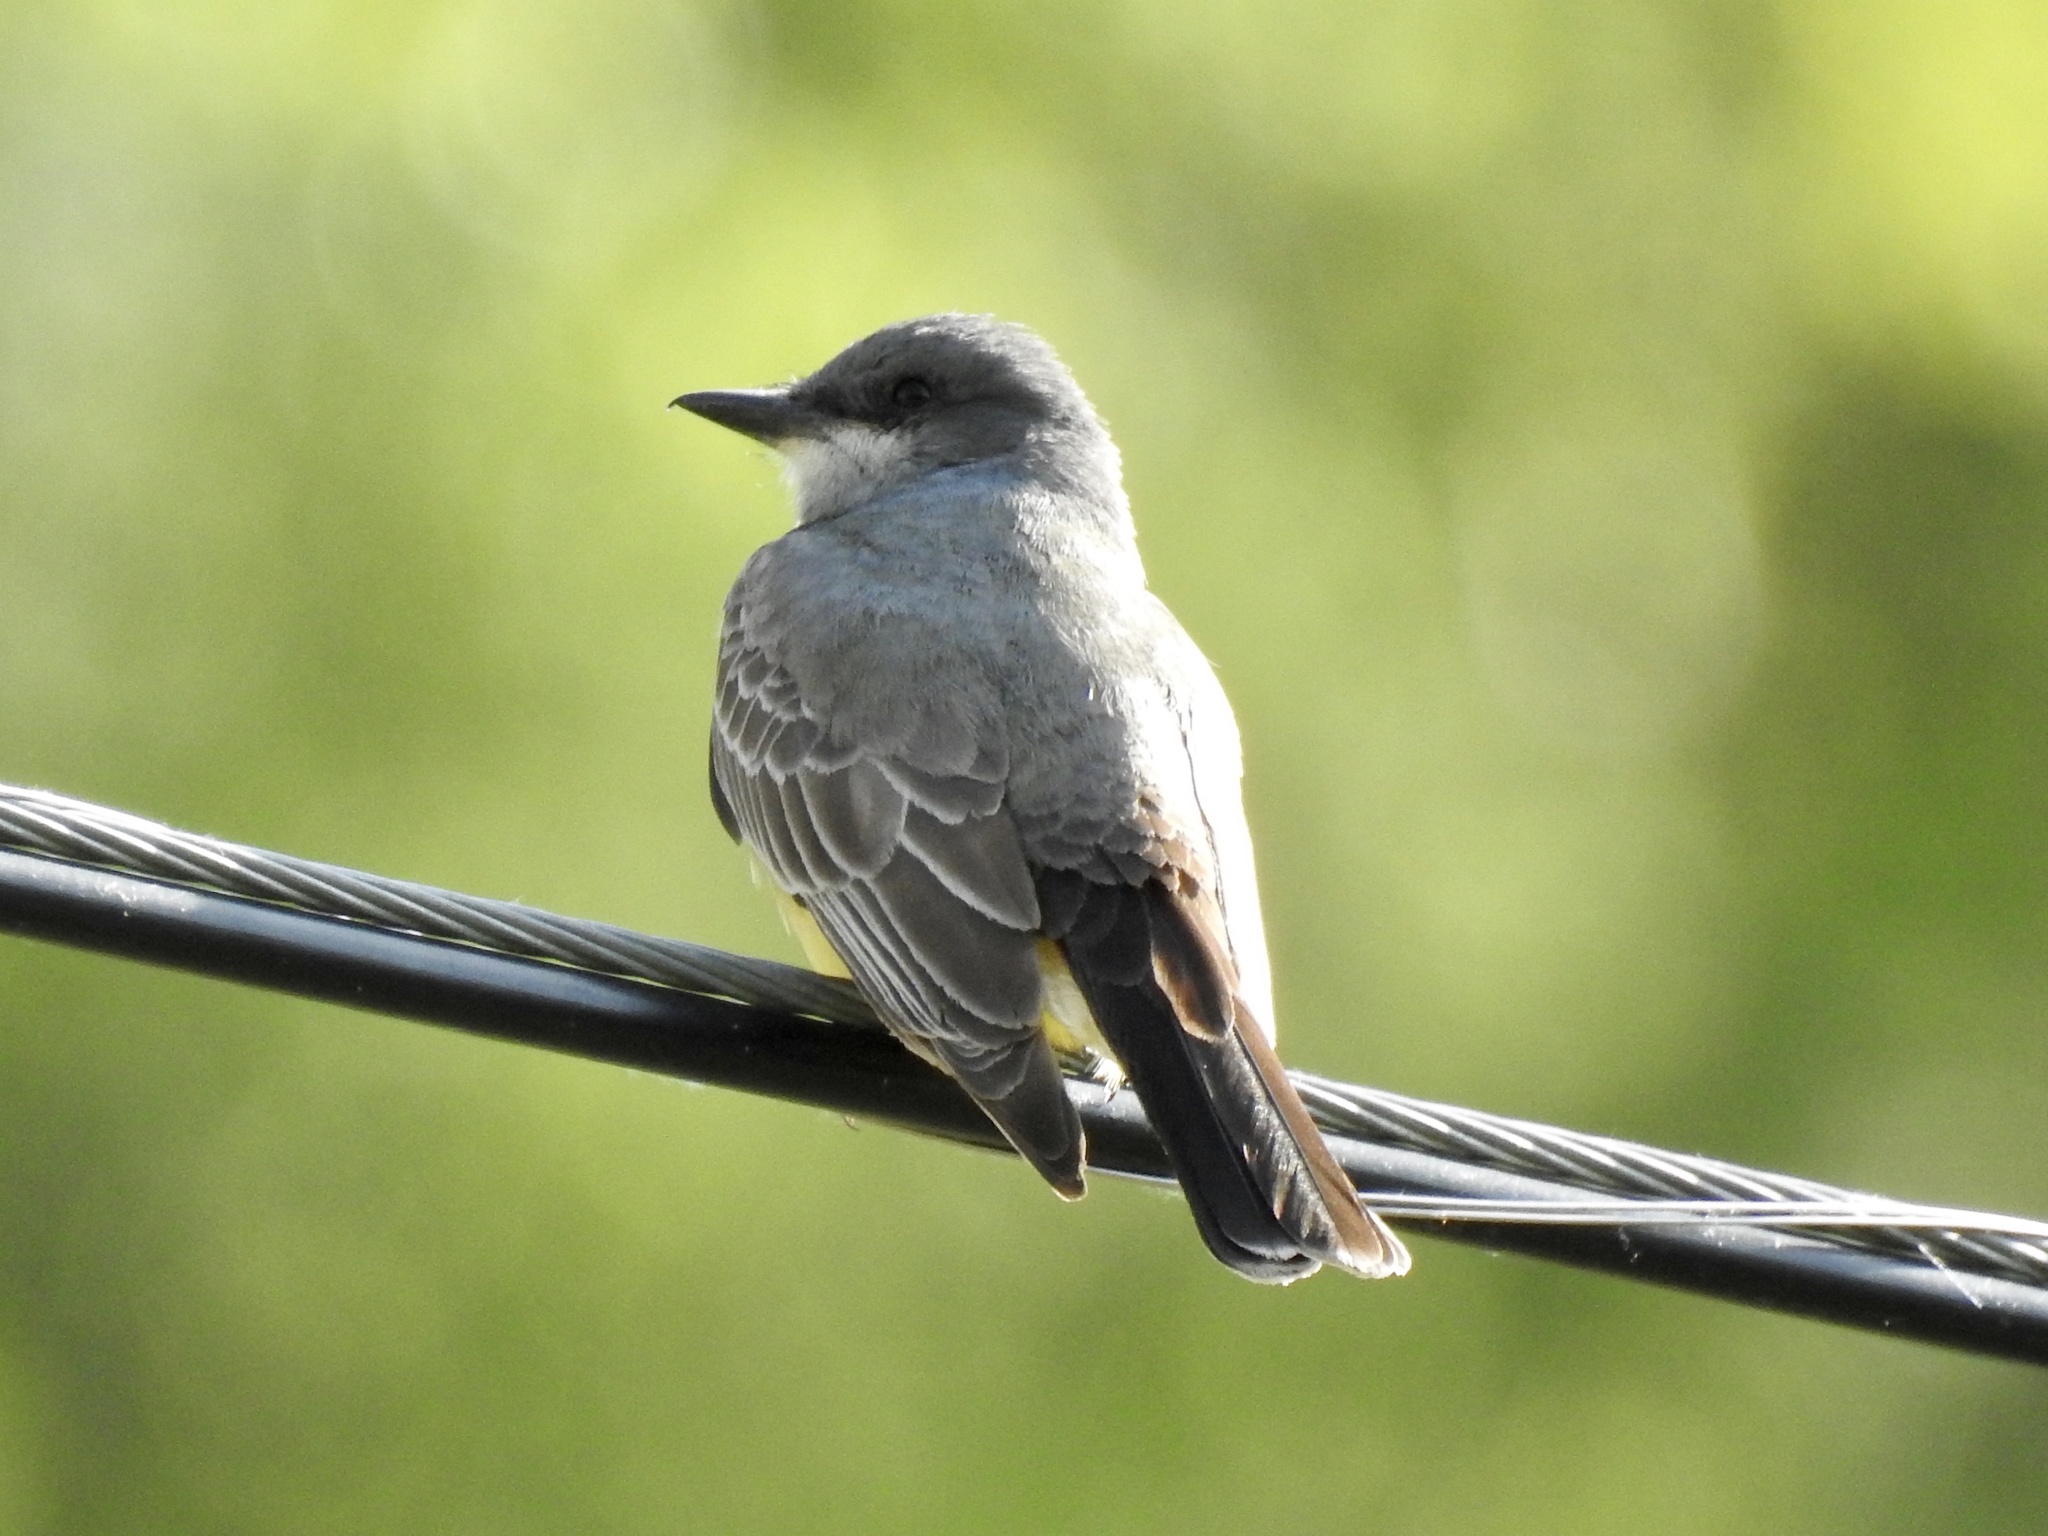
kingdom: Animalia
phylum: Chordata
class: Aves
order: Passeriformes
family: Tyrannidae
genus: Tyrannus
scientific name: Tyrannus vociferans
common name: Cassin's kingbird
